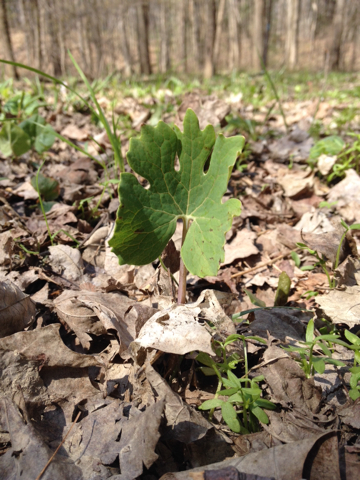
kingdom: Plantae
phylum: Tracheophyta
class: Magnoliopsida
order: Ranunculales
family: Papaveraceae
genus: Sanguinaria
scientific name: Sanguinaria canadensis
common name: Bloodroot
